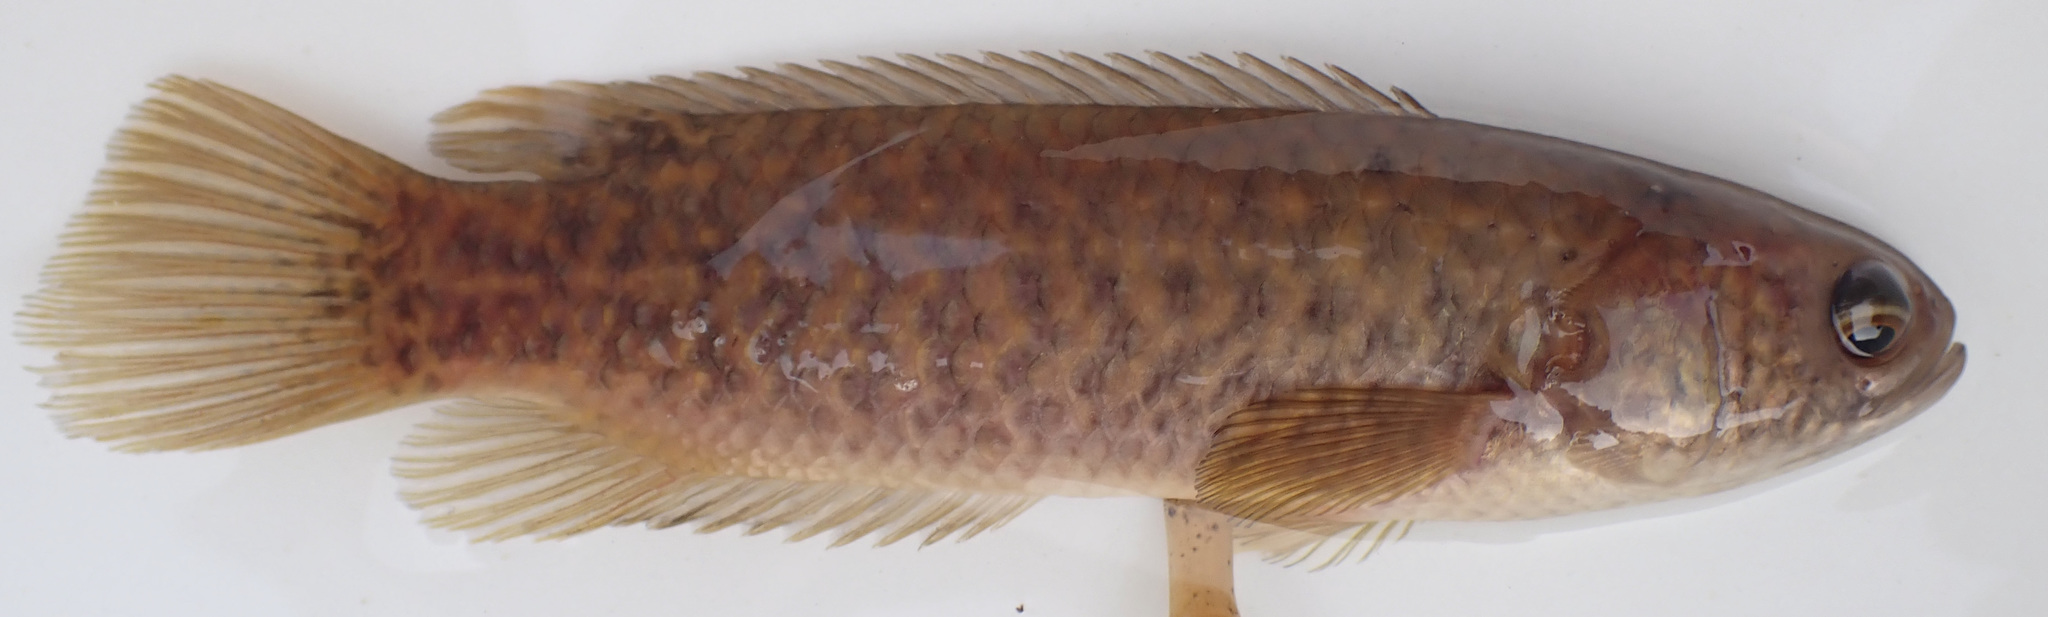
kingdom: Animalia
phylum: Chordata
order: Perciformes
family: Anabantidae
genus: Ctenopoma
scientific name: Ctenopoma multispine
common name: Manyspined climbing perch
